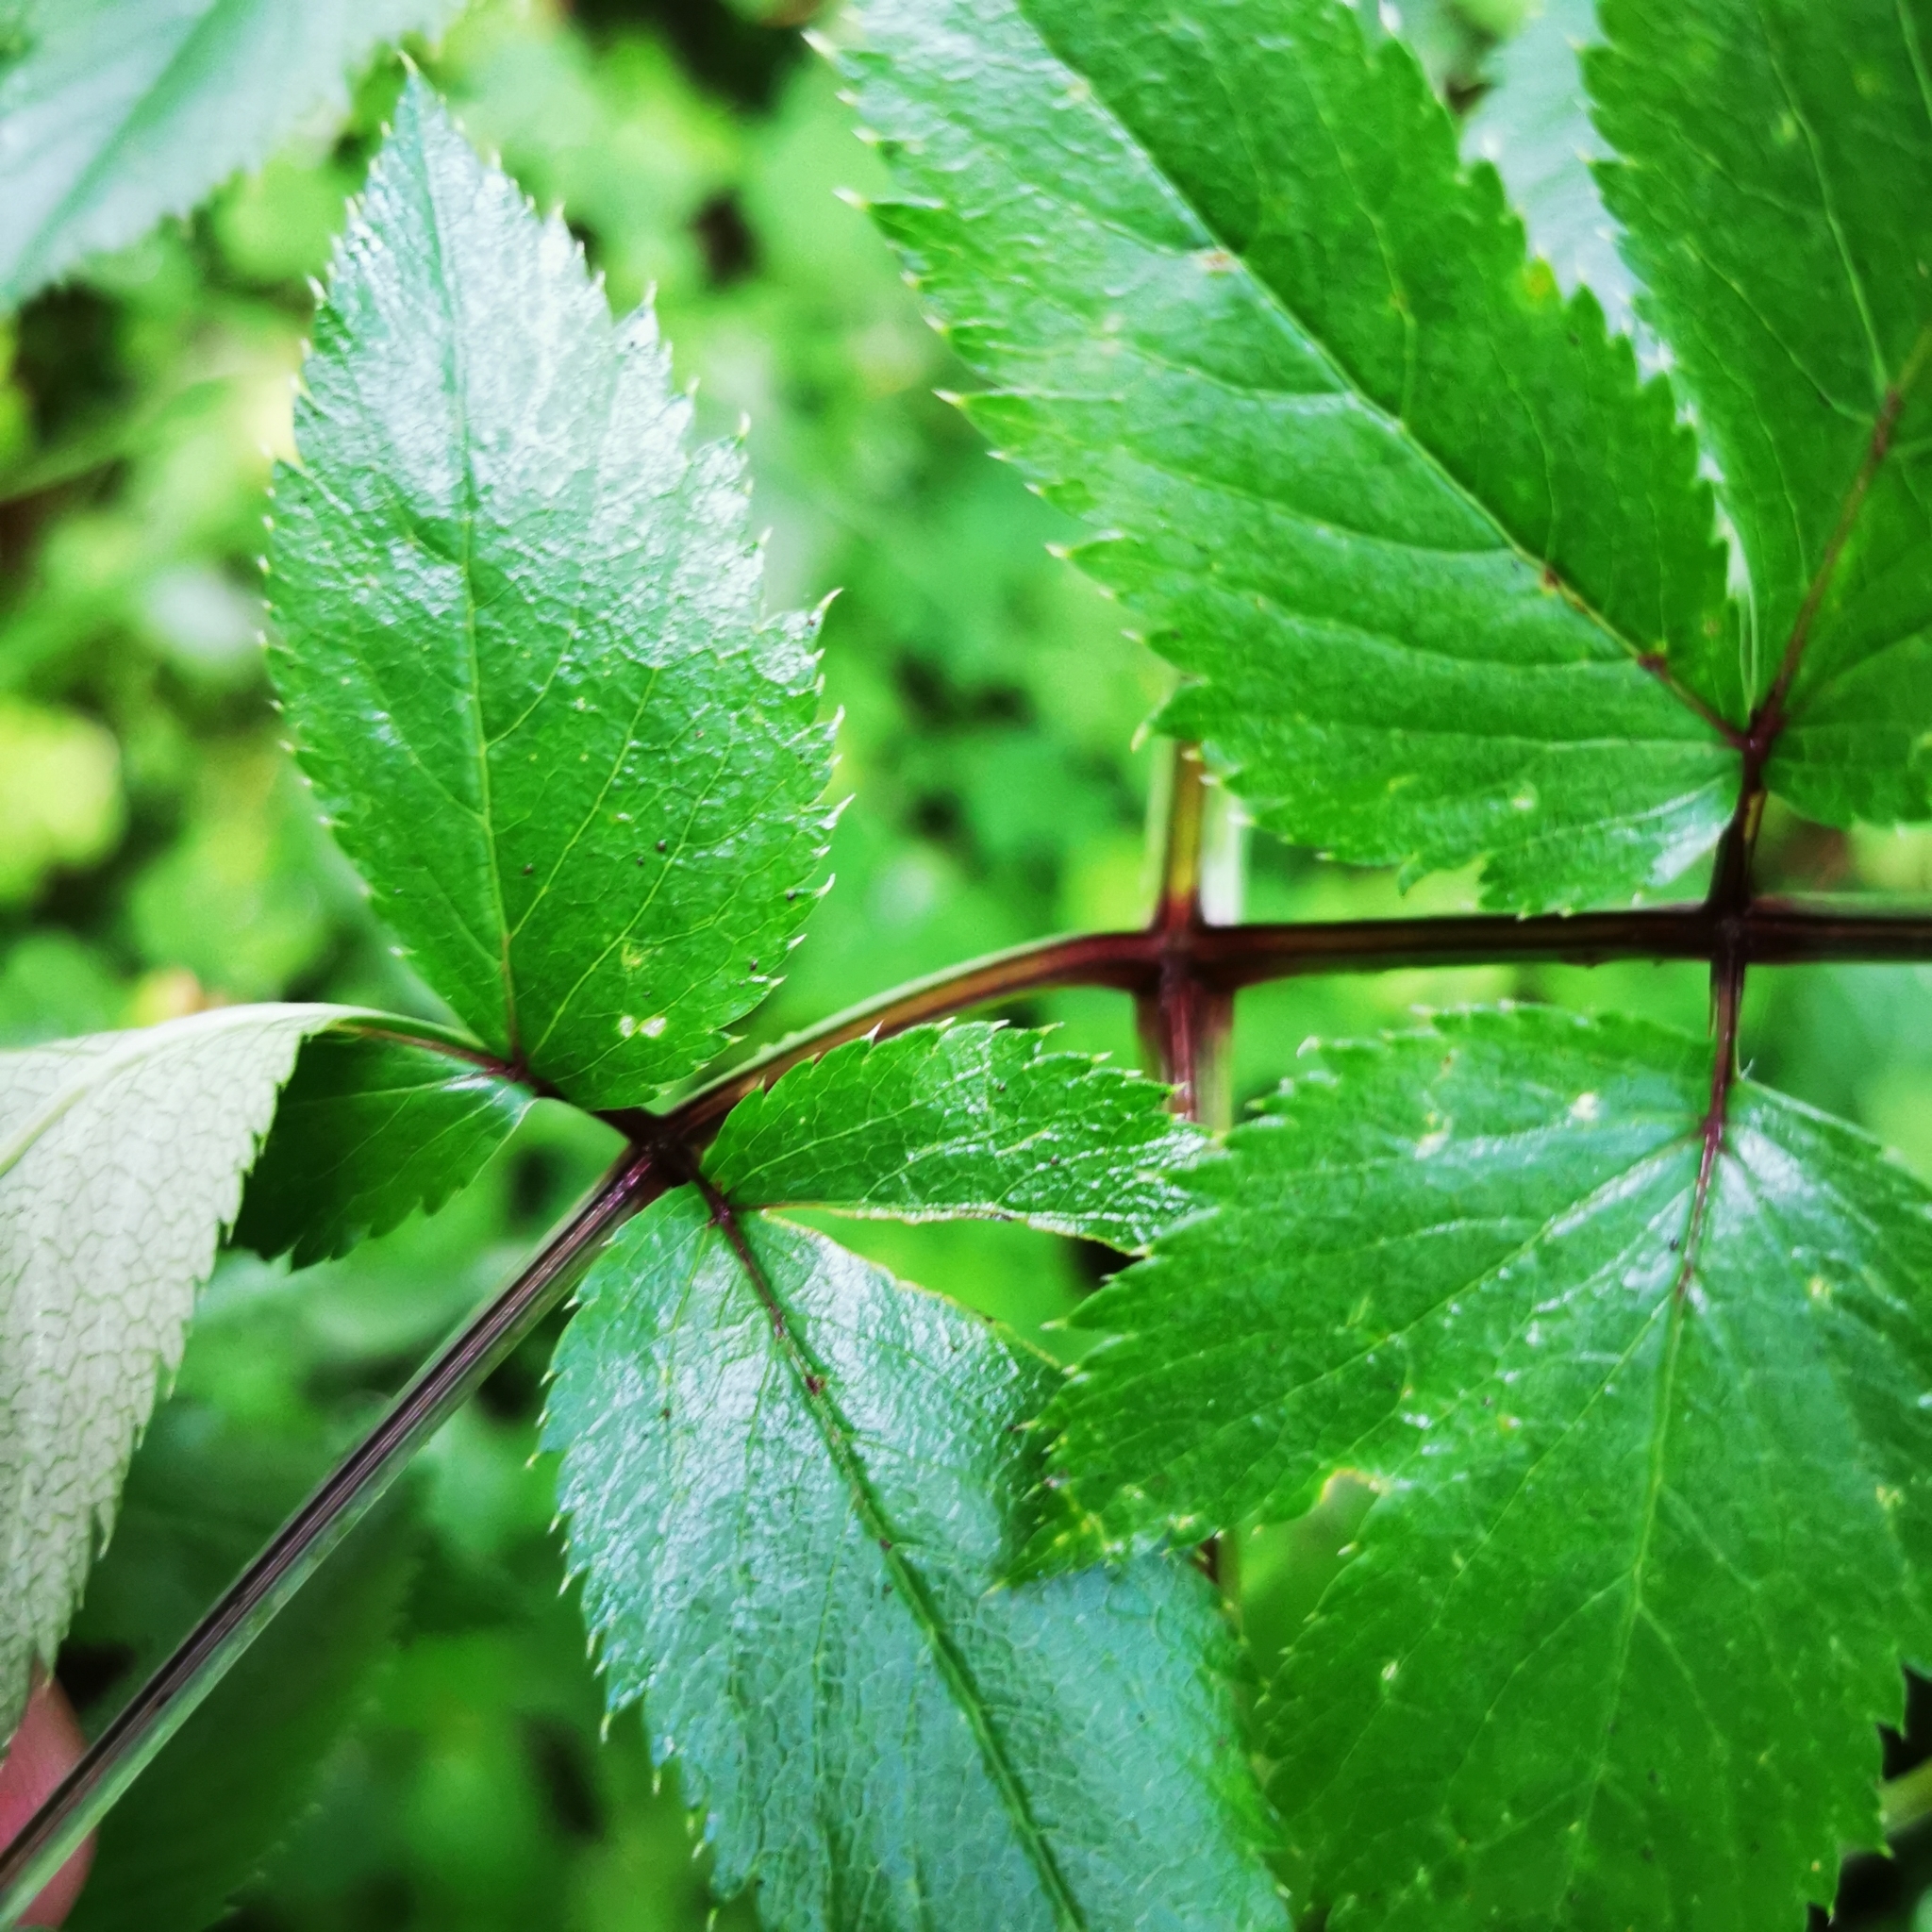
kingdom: Plantae
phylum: Tracheophyta
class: Magnoliopsida
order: Apiales
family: Apiaceae
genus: Angelica
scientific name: Angelica sylvestris
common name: Wild angelica
